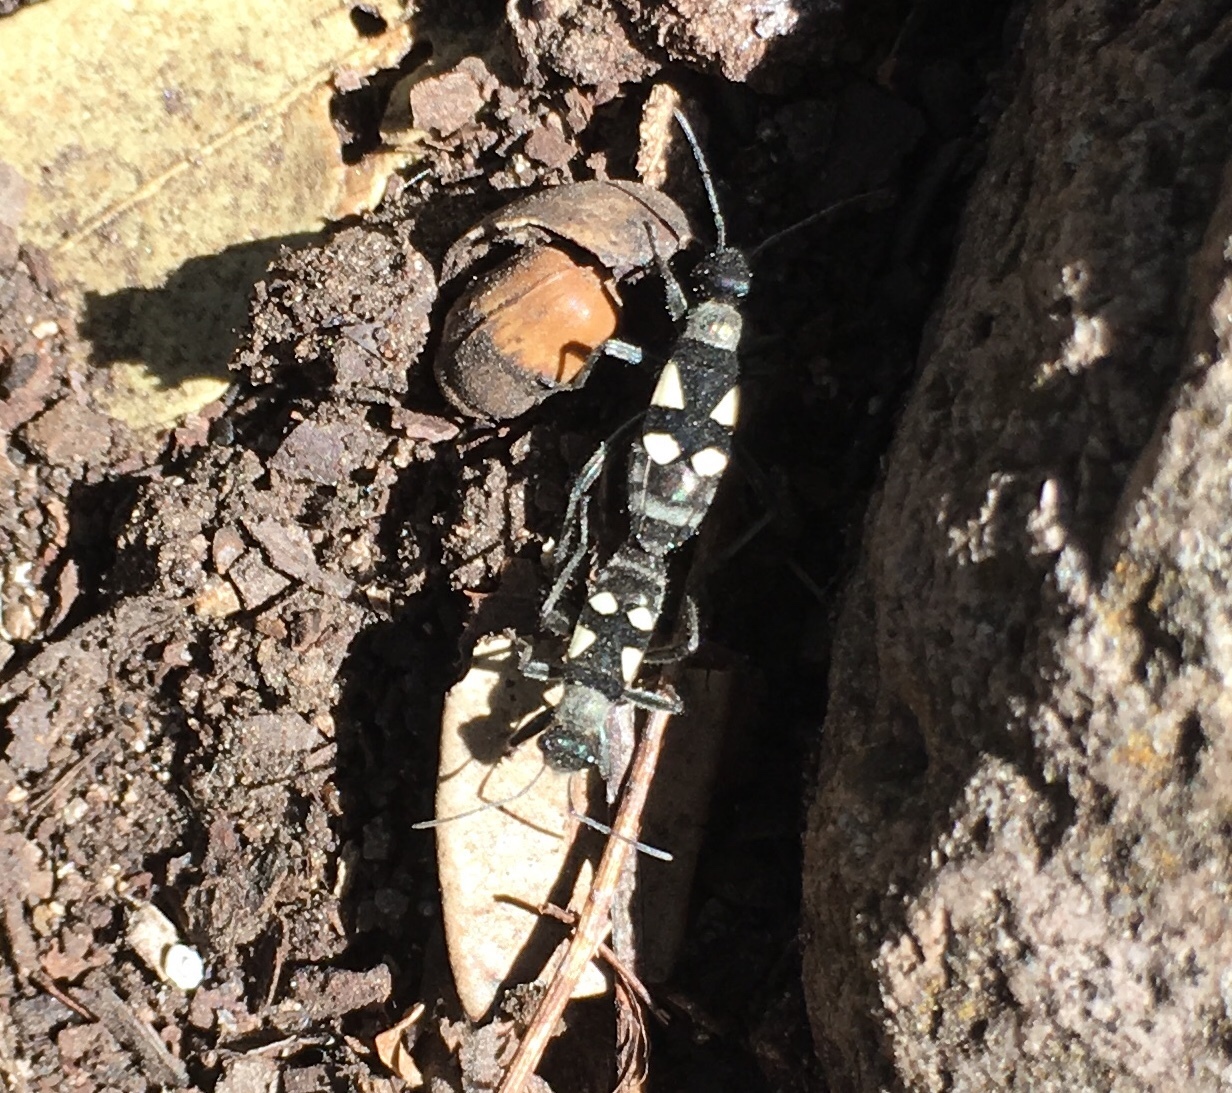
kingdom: Animalia
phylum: Arthropoda
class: Insecta
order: Hemiptera
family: Largidae
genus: Arhaphe
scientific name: Arhaphe arguta
